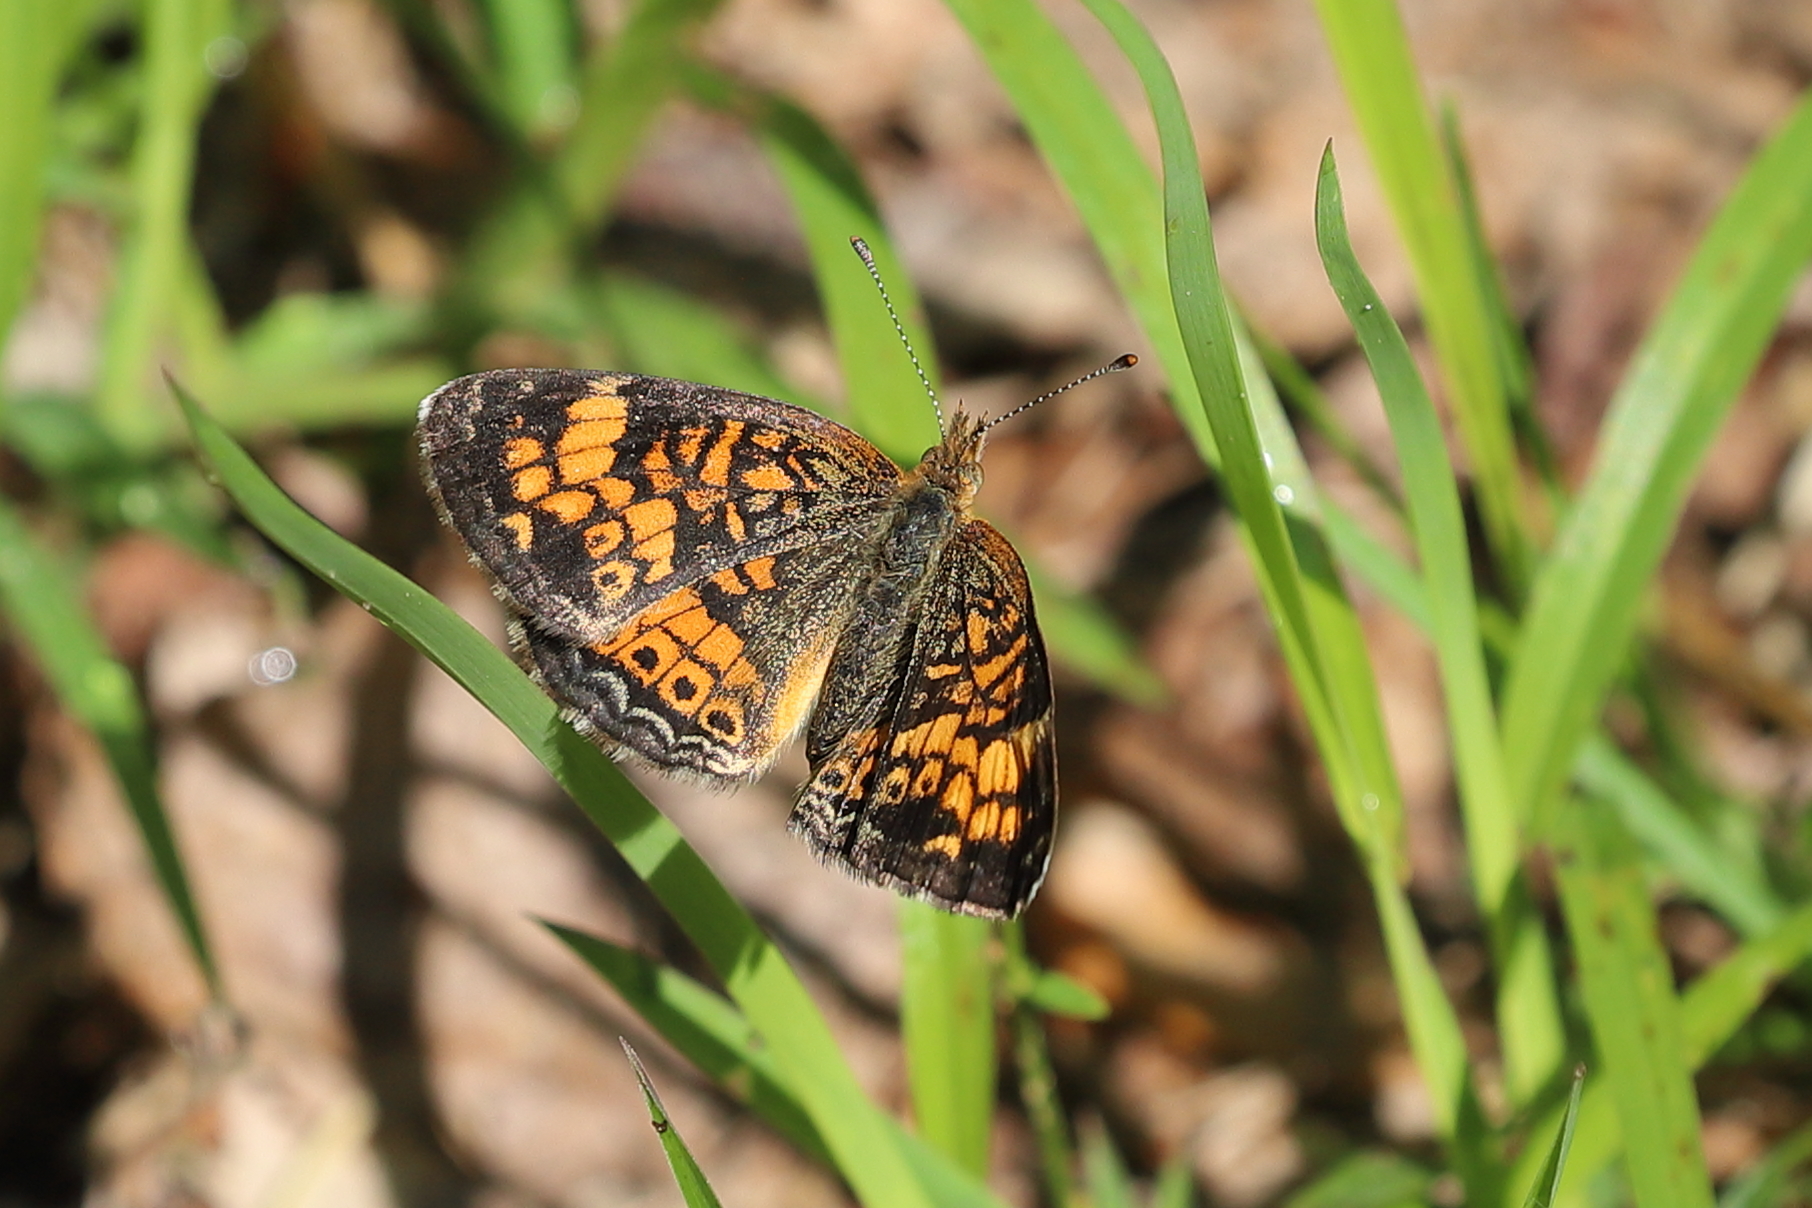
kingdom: Animalia
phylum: Arthropoda
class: Insecta
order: Lepidoptera
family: Nymphalidae
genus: Phyciodes
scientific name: Phyciodes tharos
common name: Pearl crescent
